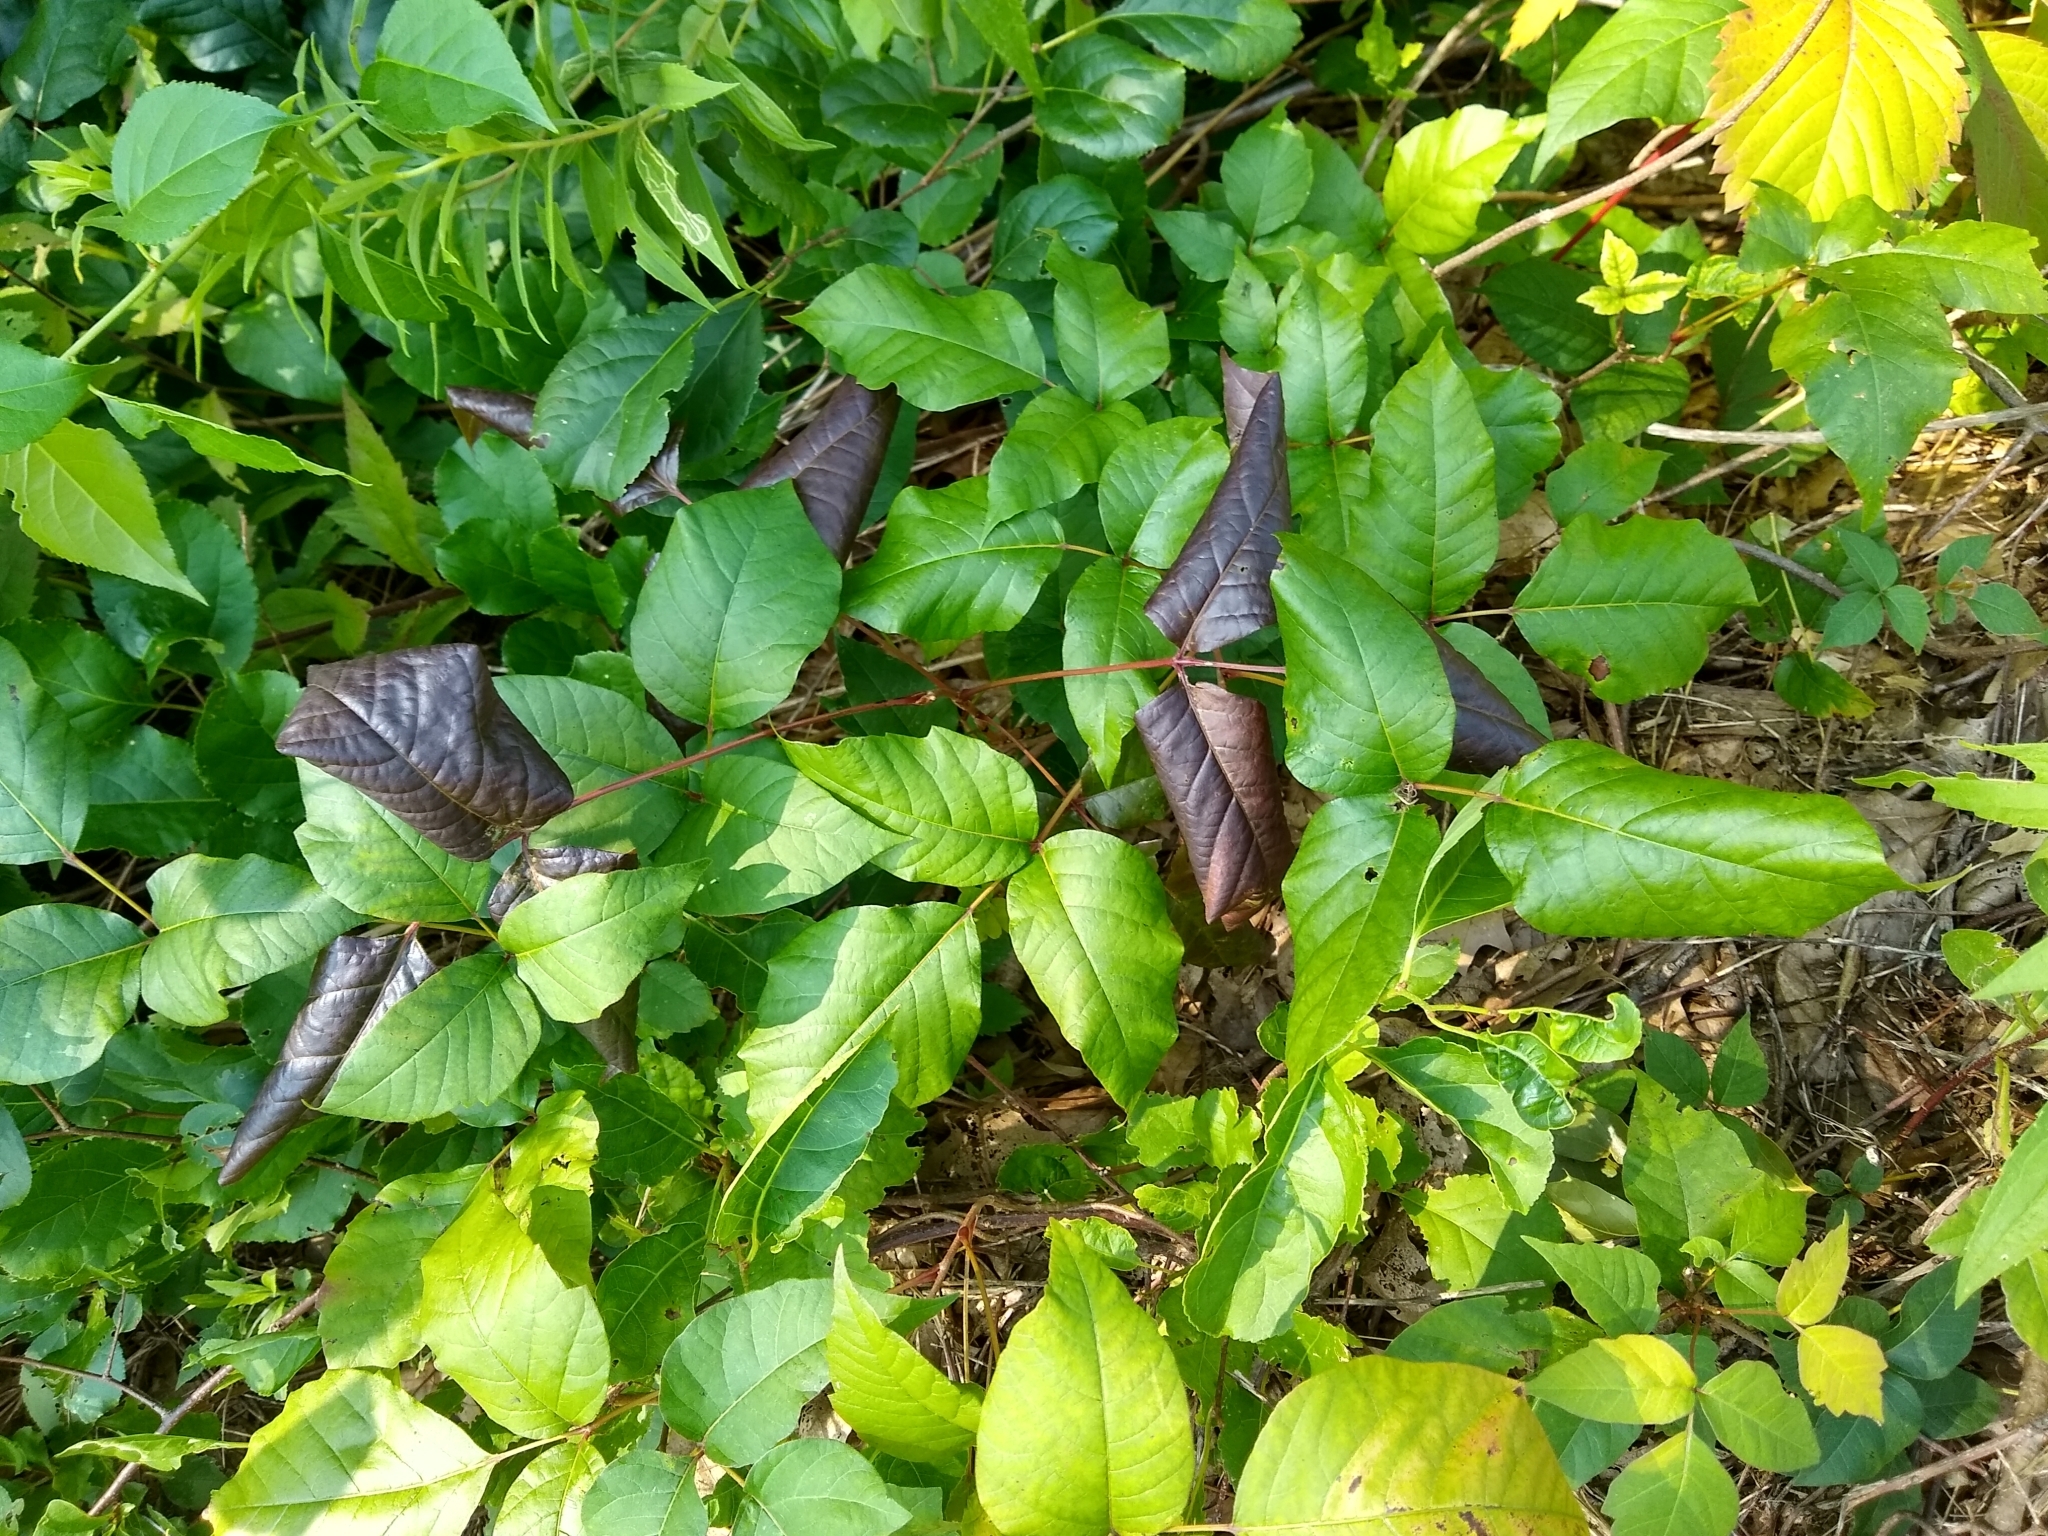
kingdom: Plantae
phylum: Tracheophyta
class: Magnoliopsida
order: Sapindales
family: Anacardiaceae
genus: Toxicodendron
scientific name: Toxicodendron radicans
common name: Poison ivy
